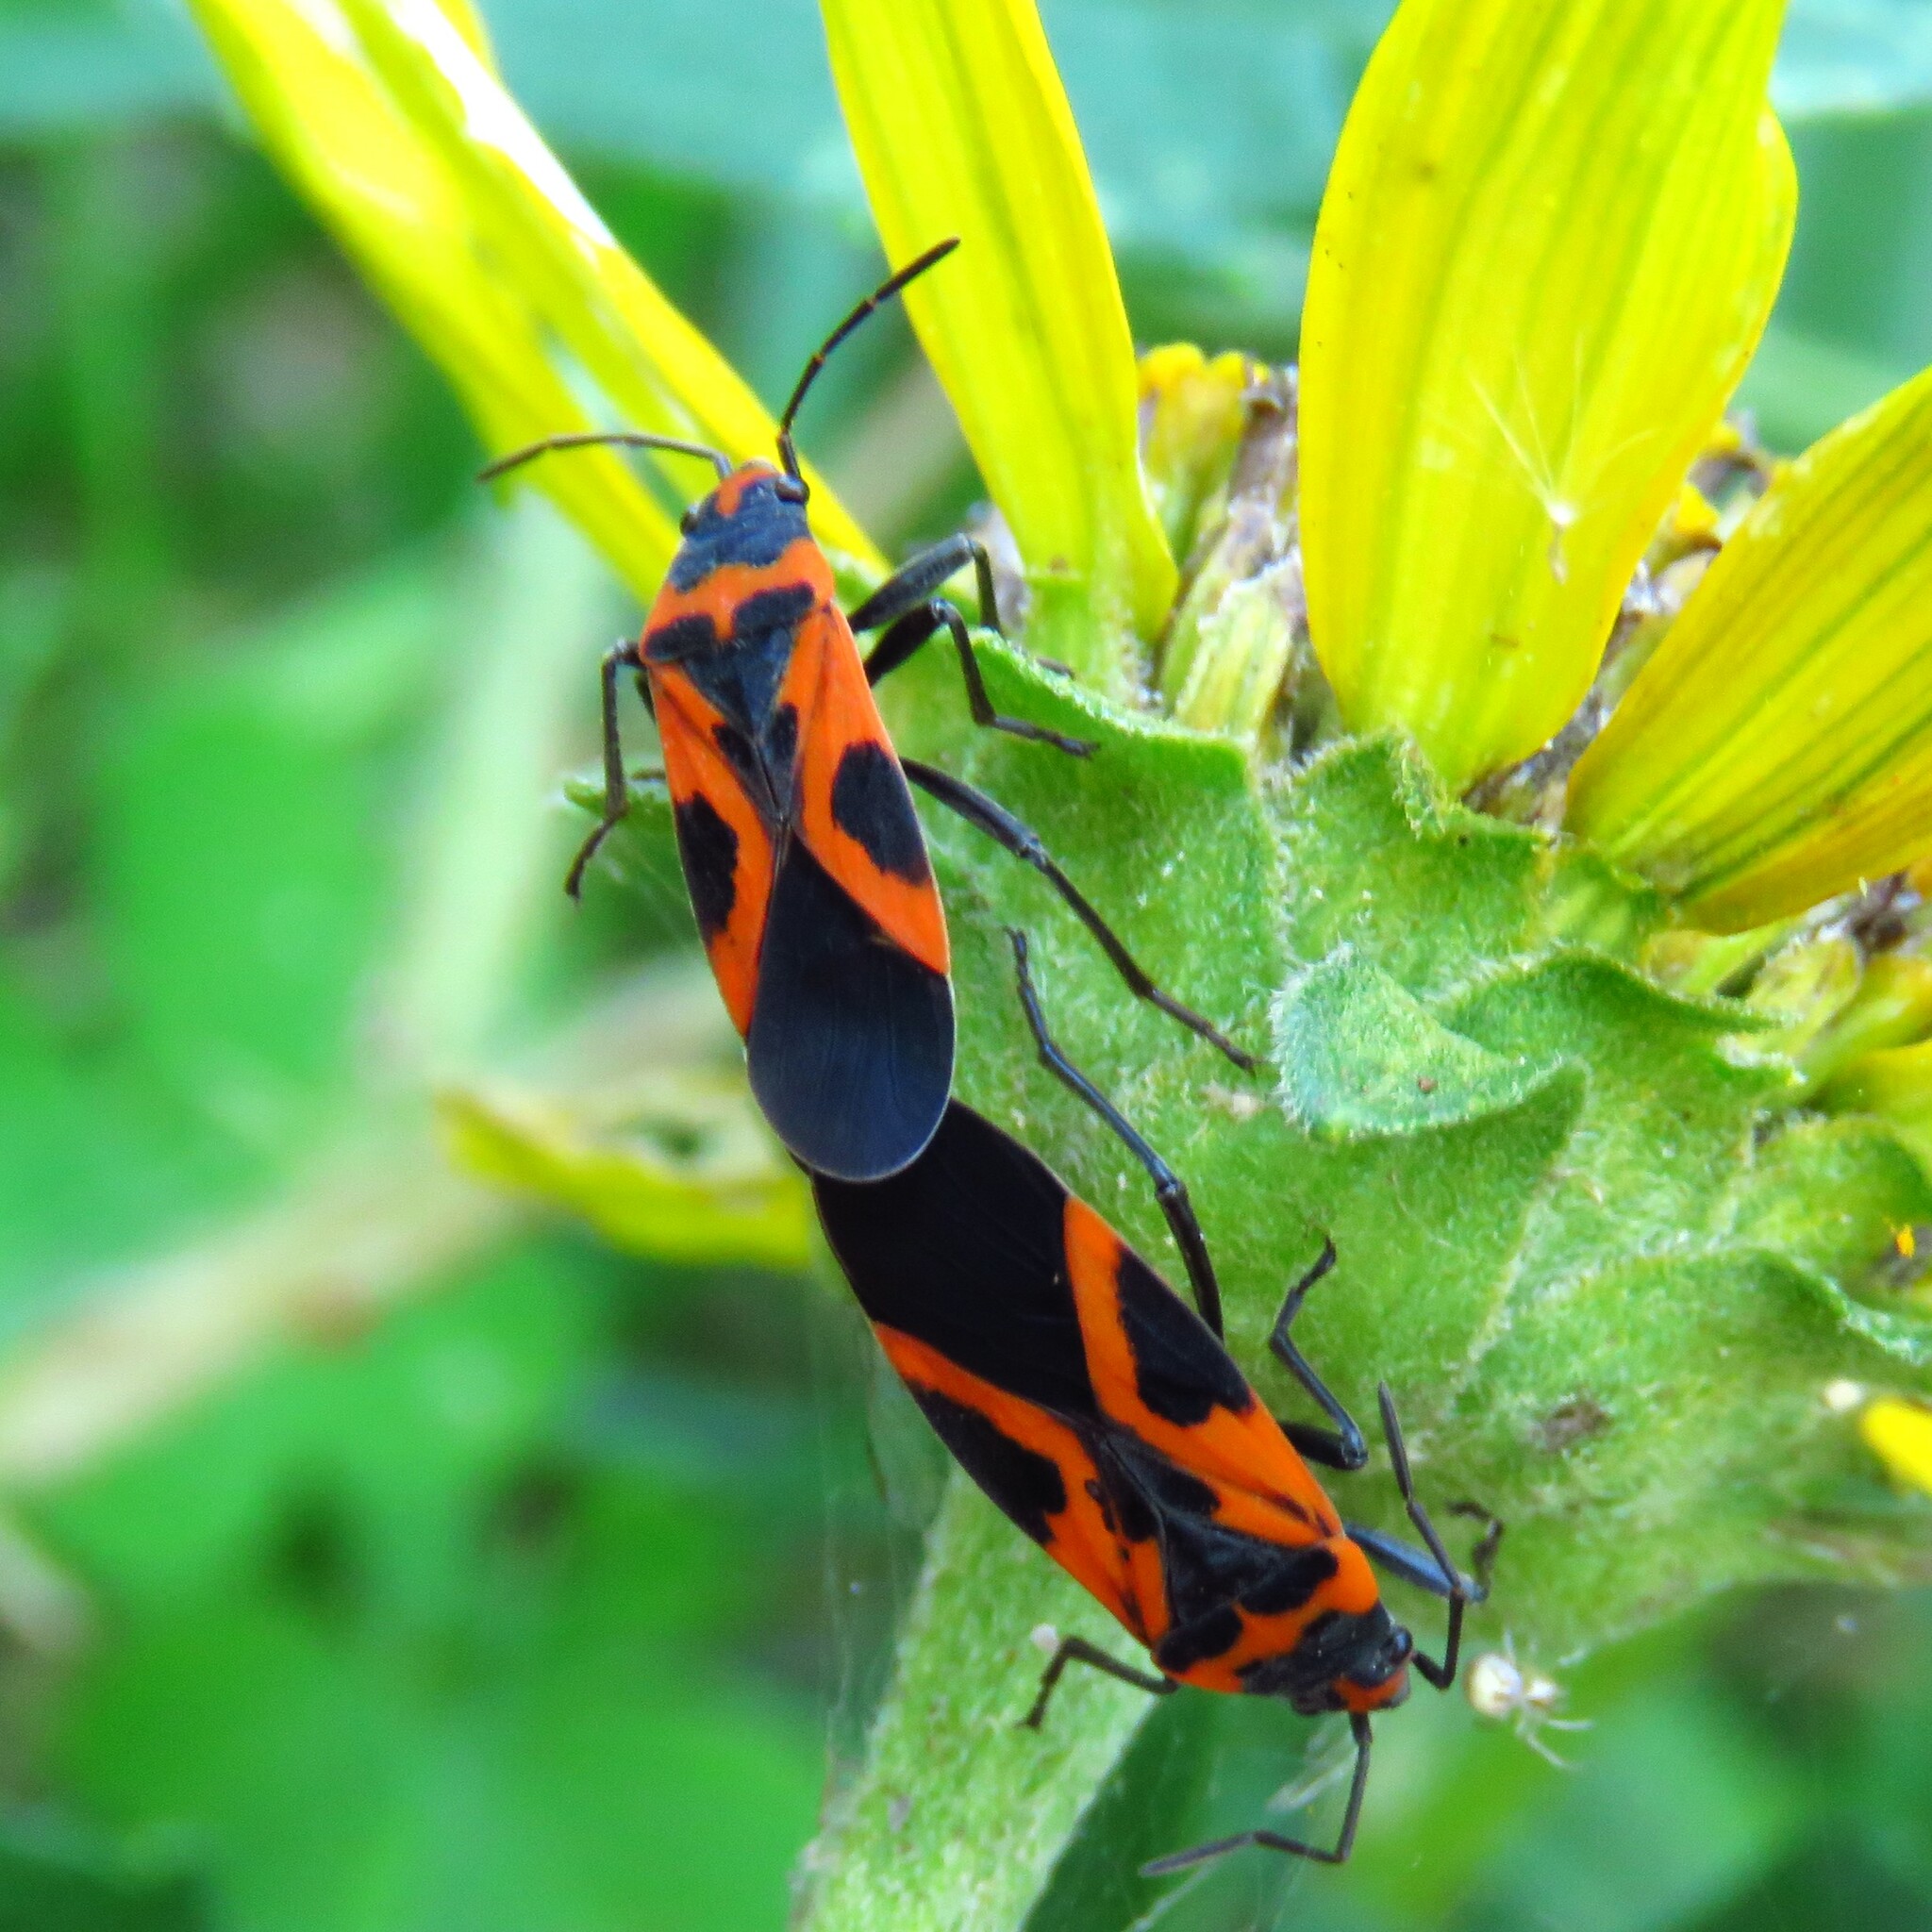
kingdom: Animalia
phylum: Arthropoda
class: Insecta
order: Hemiptera
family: Lygaeidae
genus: Lygaeus
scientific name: Lygaeus turcicus
